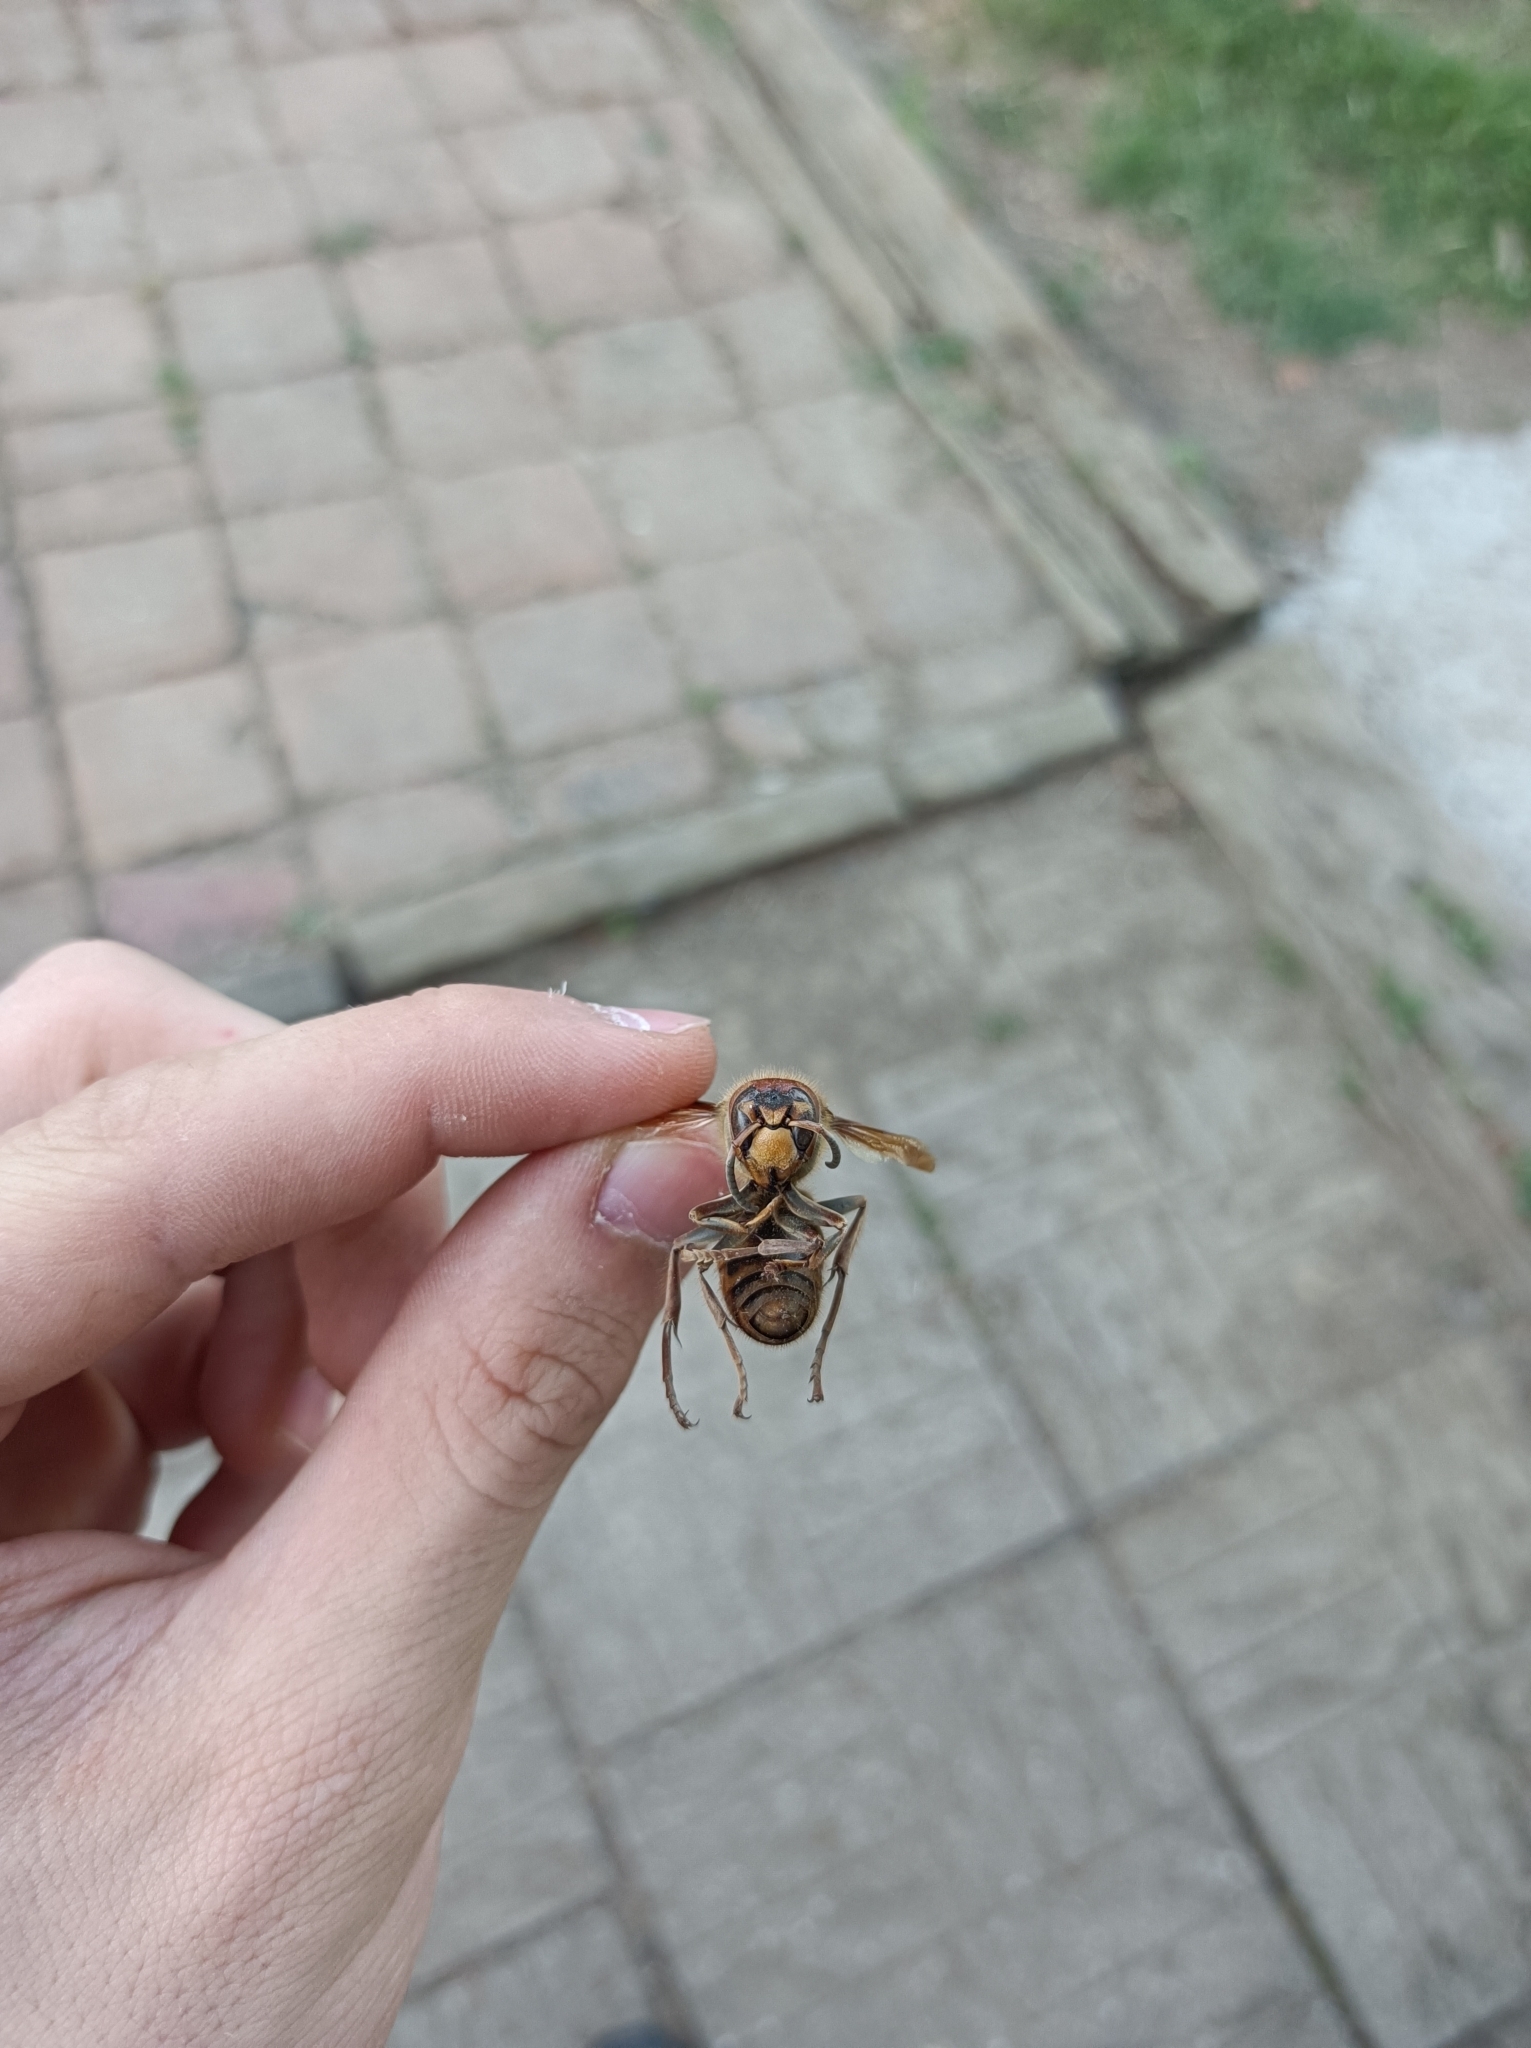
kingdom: Animalia
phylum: Arthropoda
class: Insecta
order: Hymenoptera
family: Vespidae
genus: Vespa
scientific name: Vespa crabro
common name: Hornet
